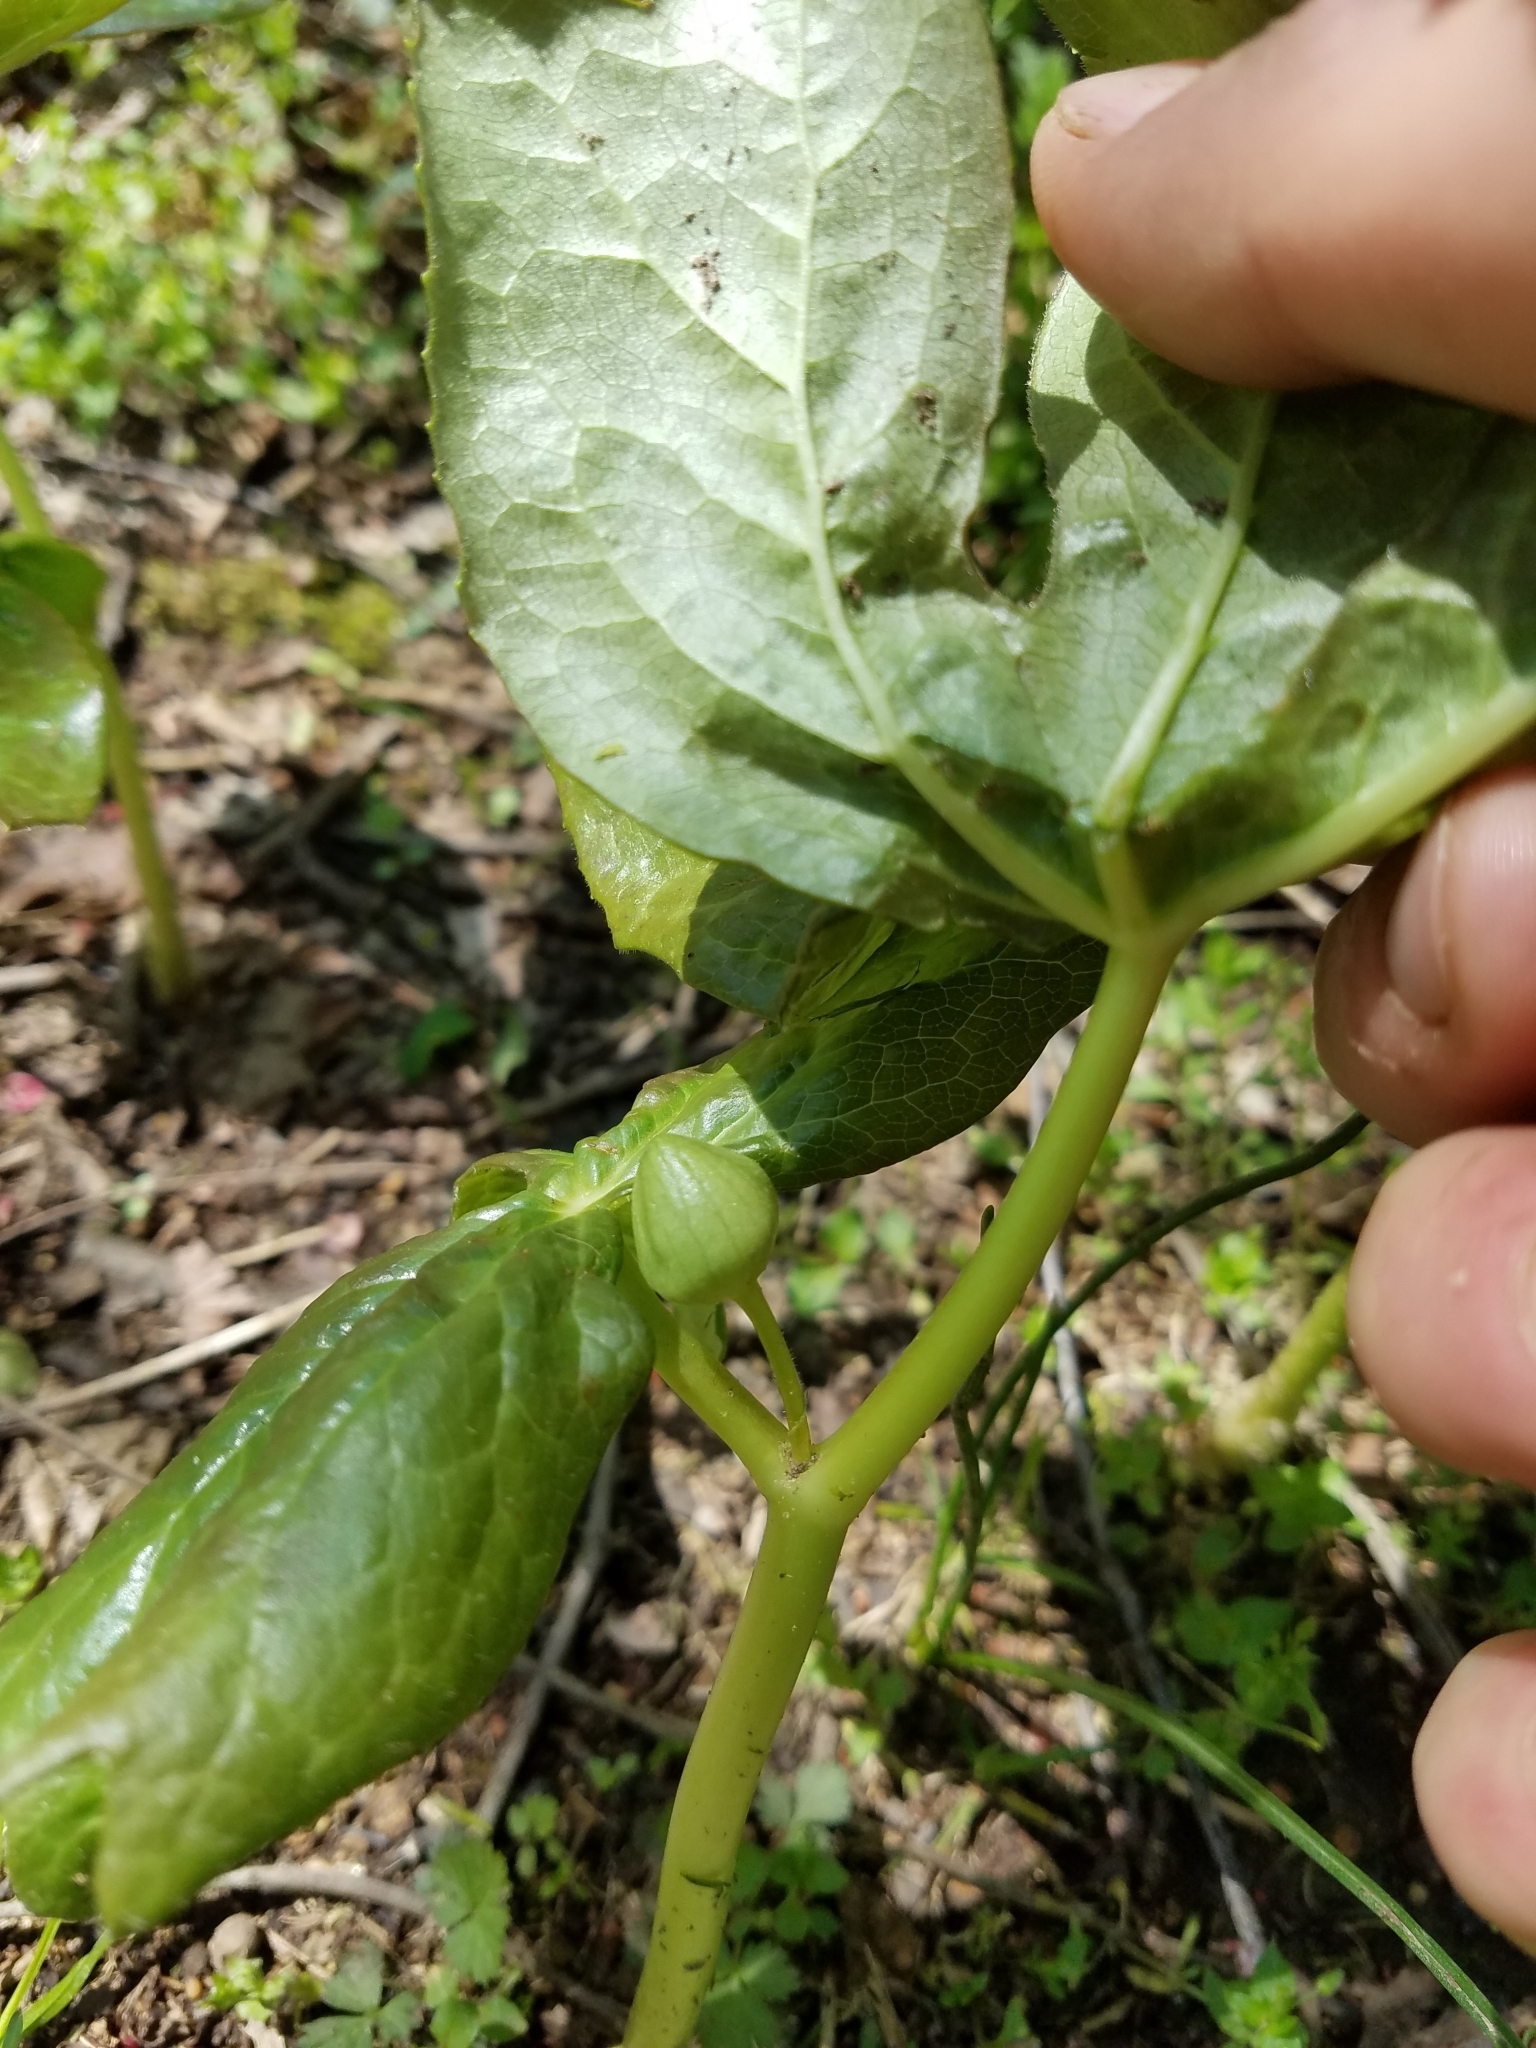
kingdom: Plantae
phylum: Tracheophyta
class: Magnoliopsida
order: Ranunculales
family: Berberidaceae
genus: Podophyllum
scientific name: Podophyllum peltatum
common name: Wild mandrake
